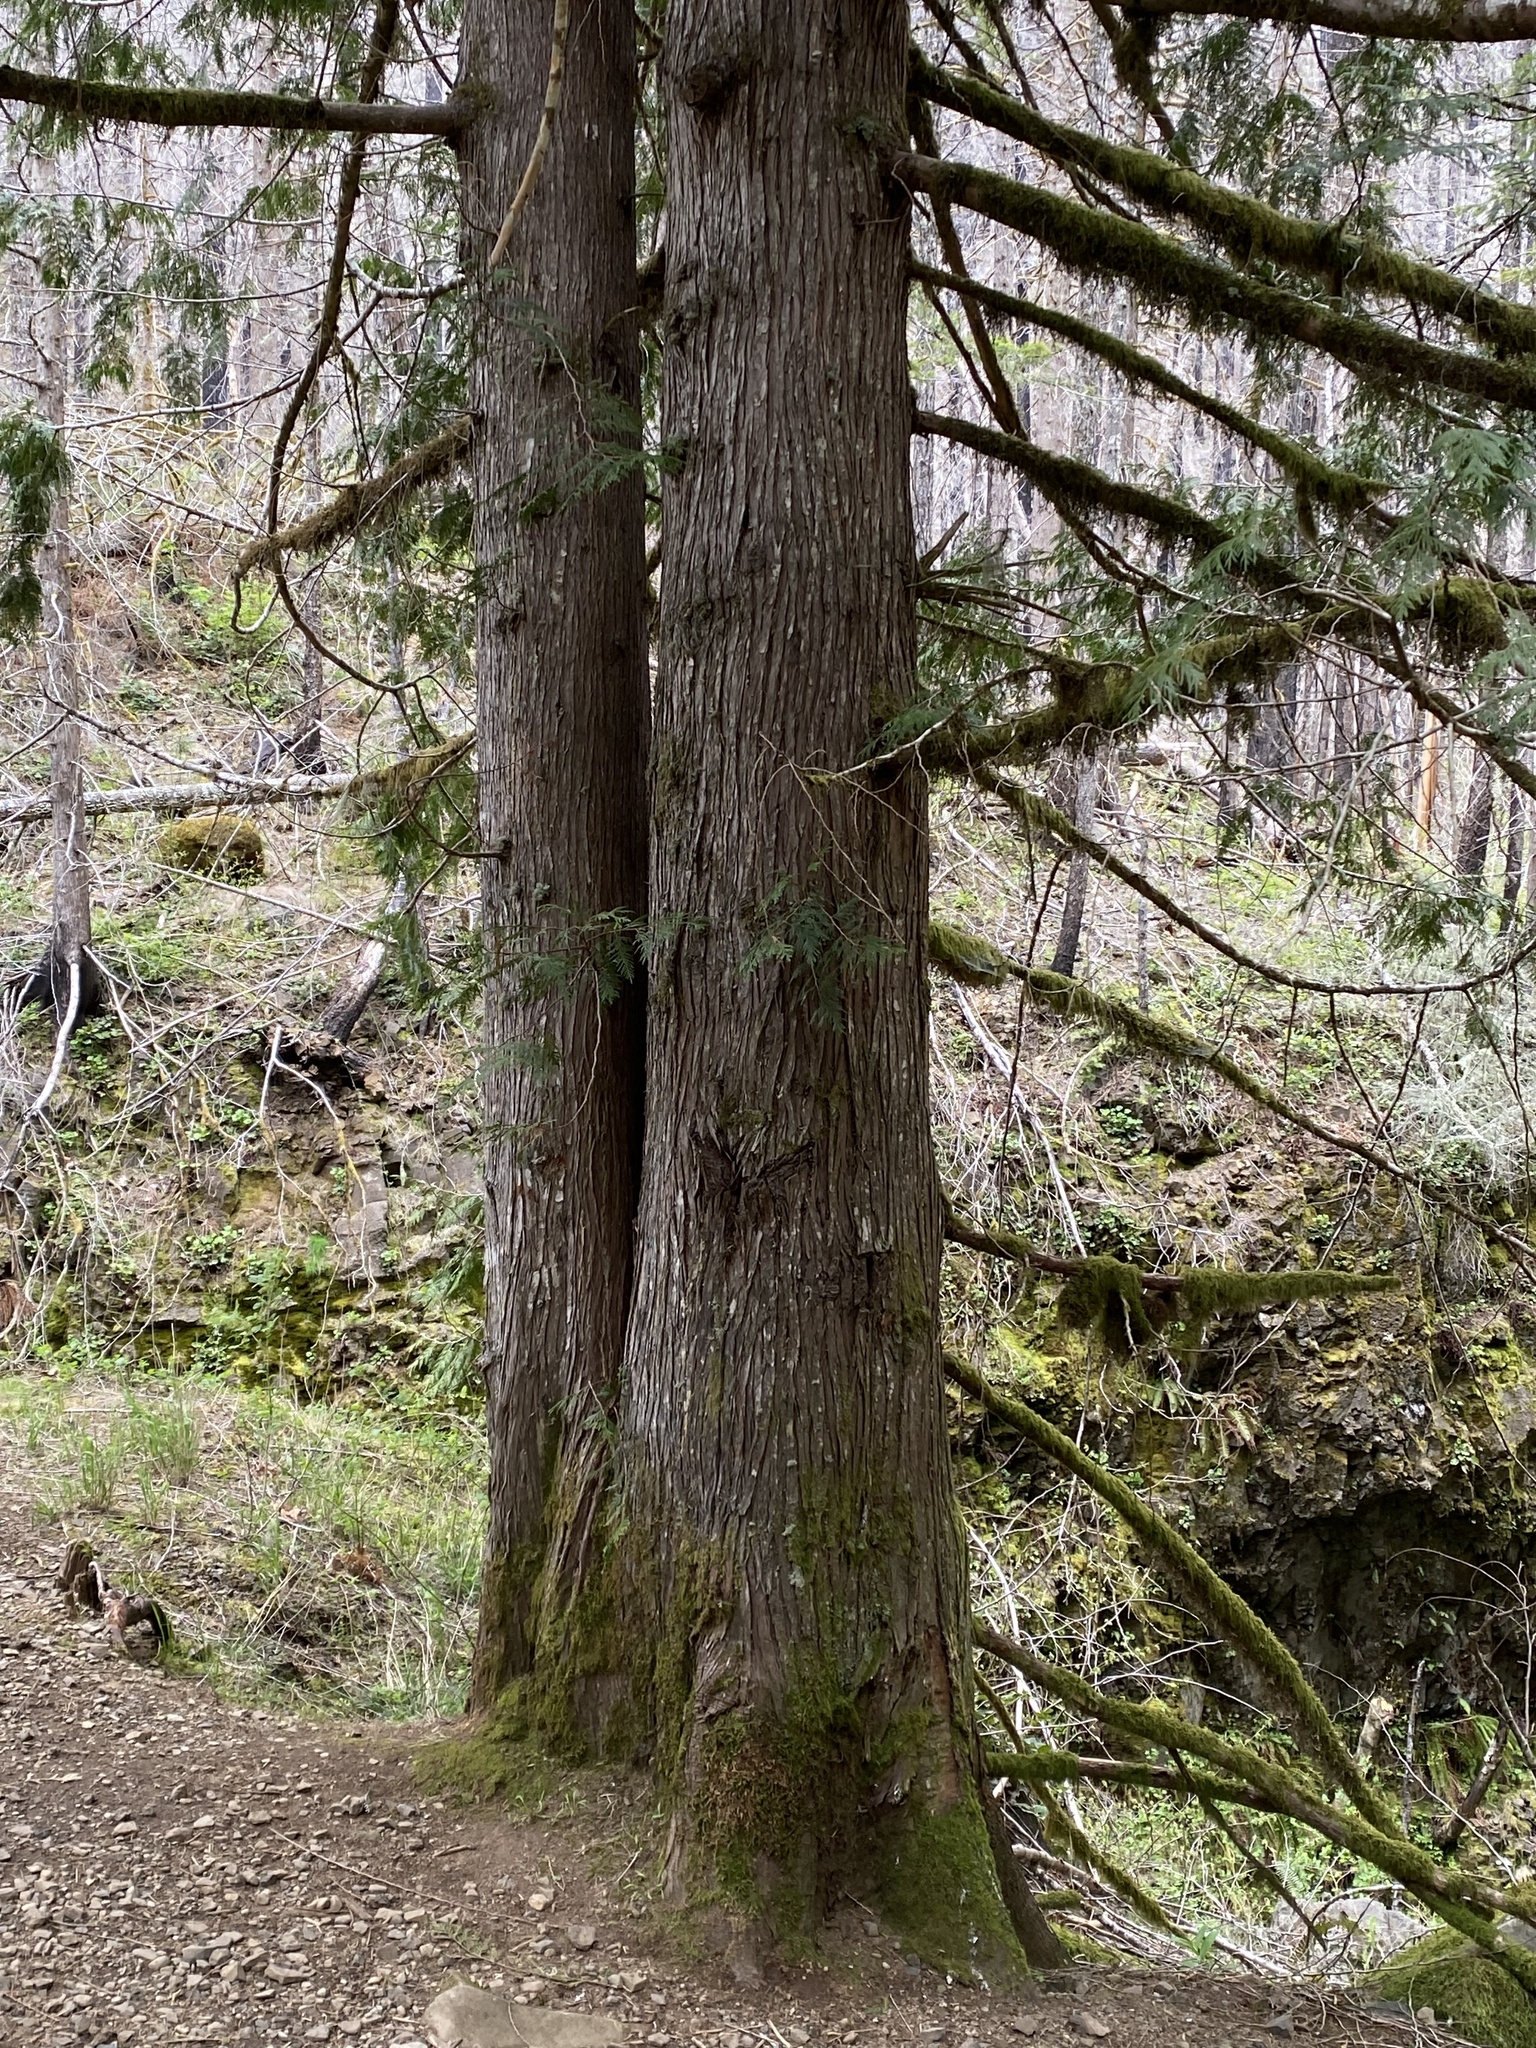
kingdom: Plantae
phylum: Tracheophyta
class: Pinopsida
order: Pinales
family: Cupressaceae
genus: Thuja
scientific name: Thuja plicata
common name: Western red-cedar
